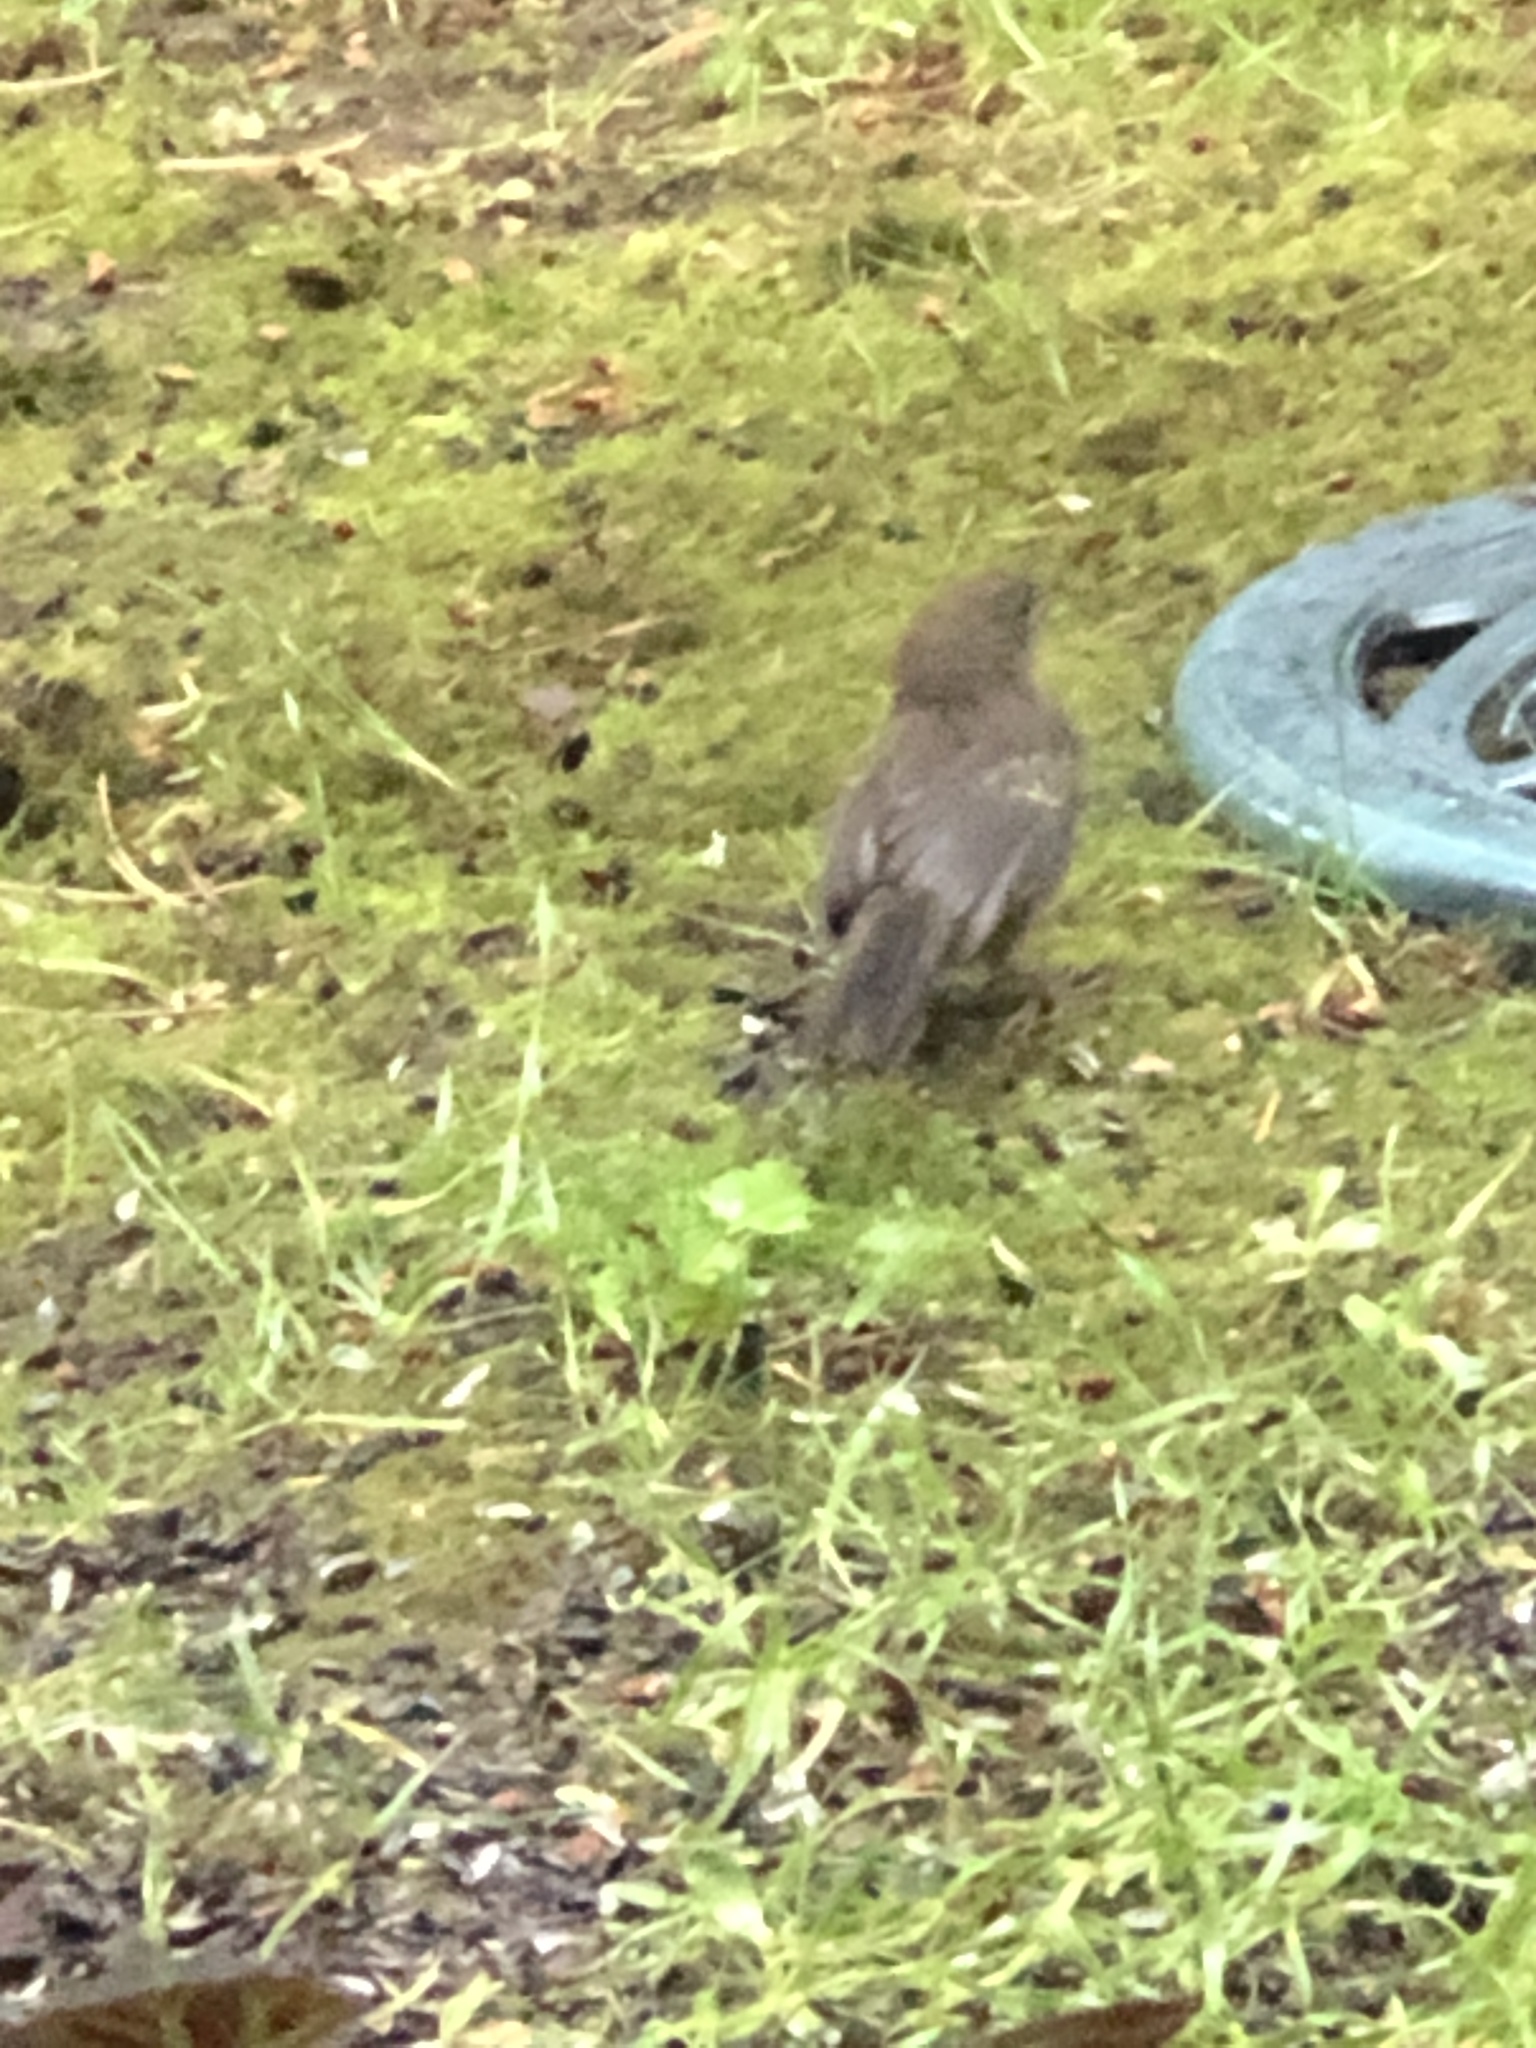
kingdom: Animalia
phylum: Chordata
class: Aves
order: Passeriformes
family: Passerellidae
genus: Pipilo
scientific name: Pipilo maculatus
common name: Spotted towhee
